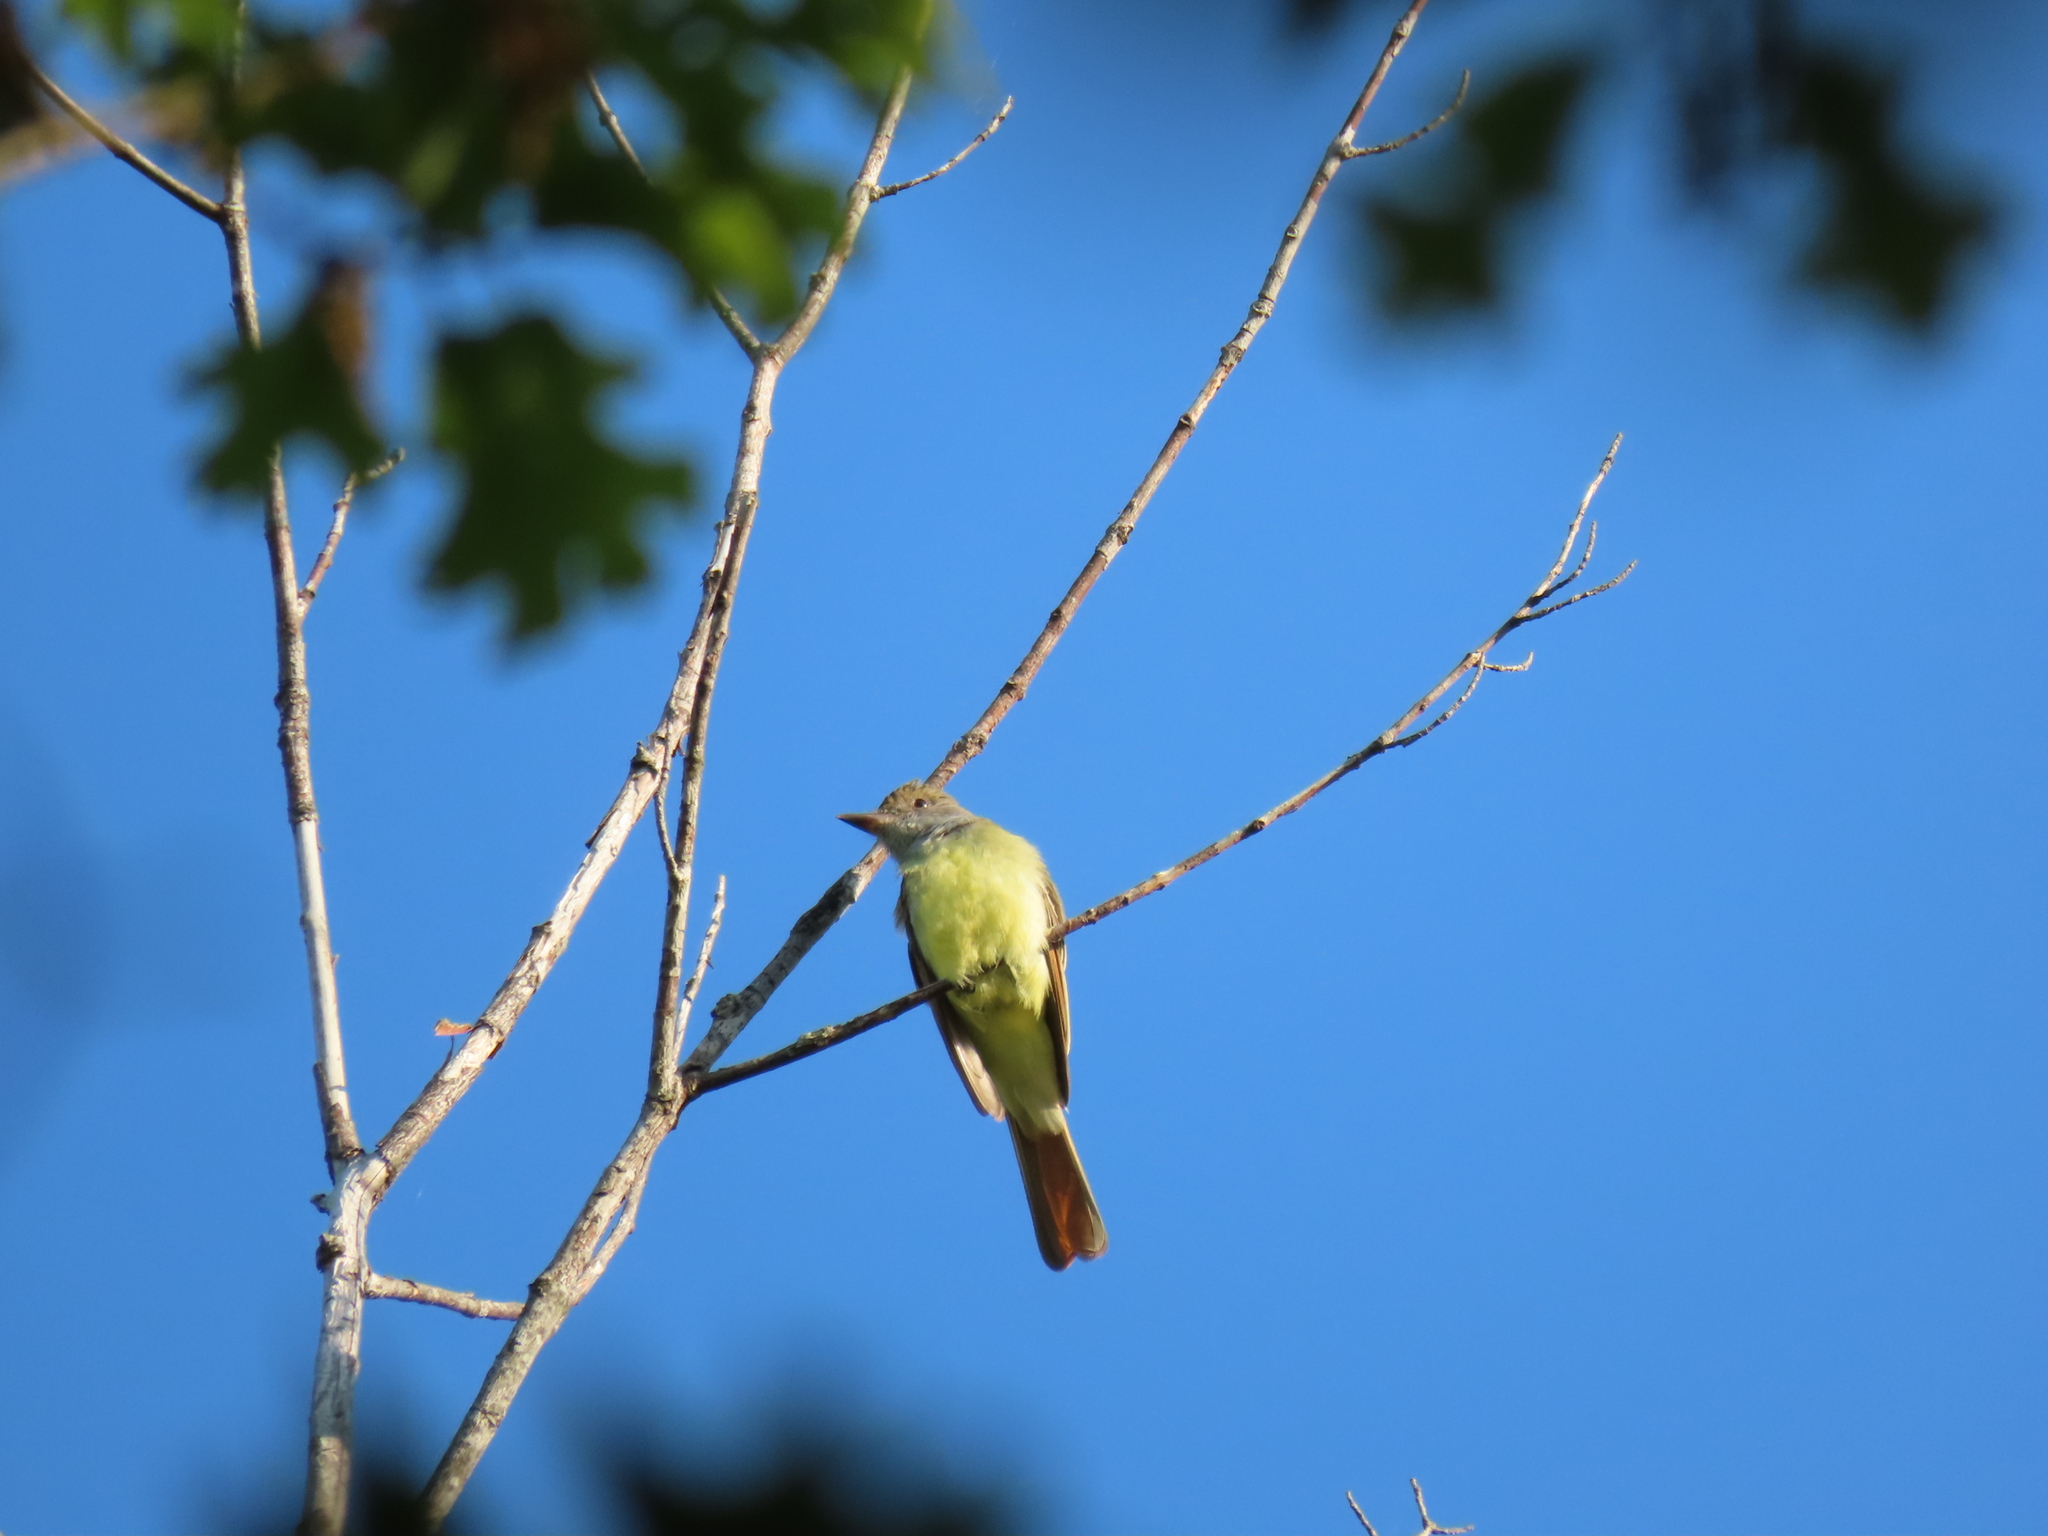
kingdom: Animalia
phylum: Chordata
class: Aves
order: Passeriformes
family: Tyrannidae
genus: Myiarchus
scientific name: Myiarchus crinitus
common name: Great crested flycatcher
